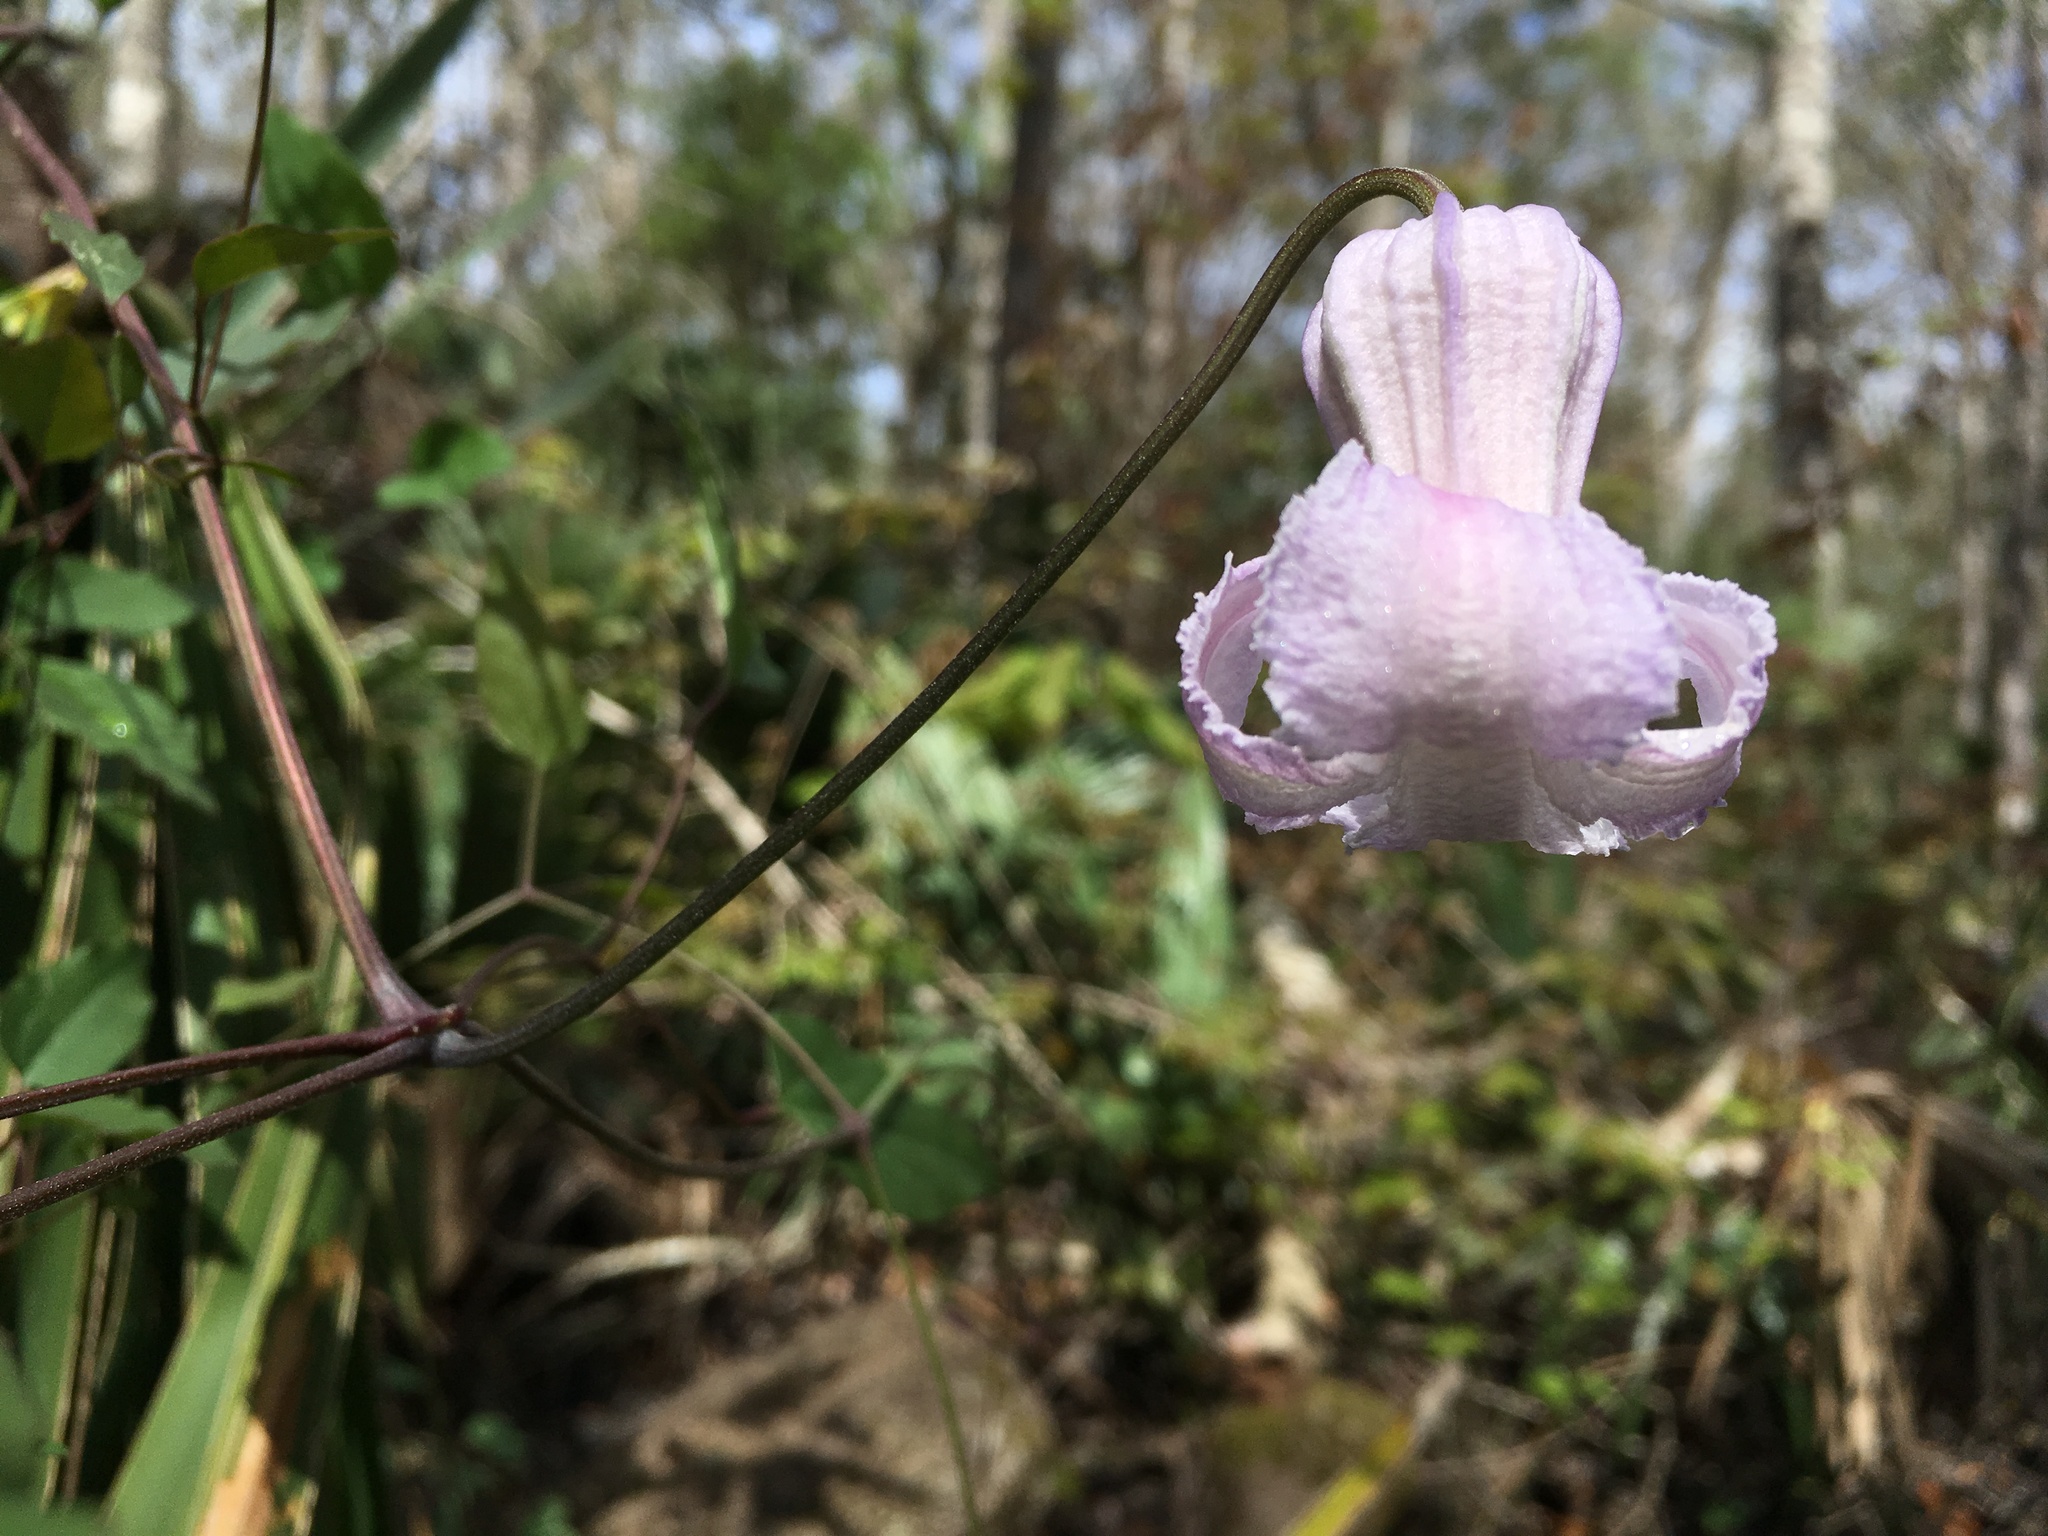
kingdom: Plantae
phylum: Tracheophyta
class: Magnoliopsida
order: Ranunculales
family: Ranunculaceae
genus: Clematis
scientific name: Clematis crispa
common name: Curly clematis
